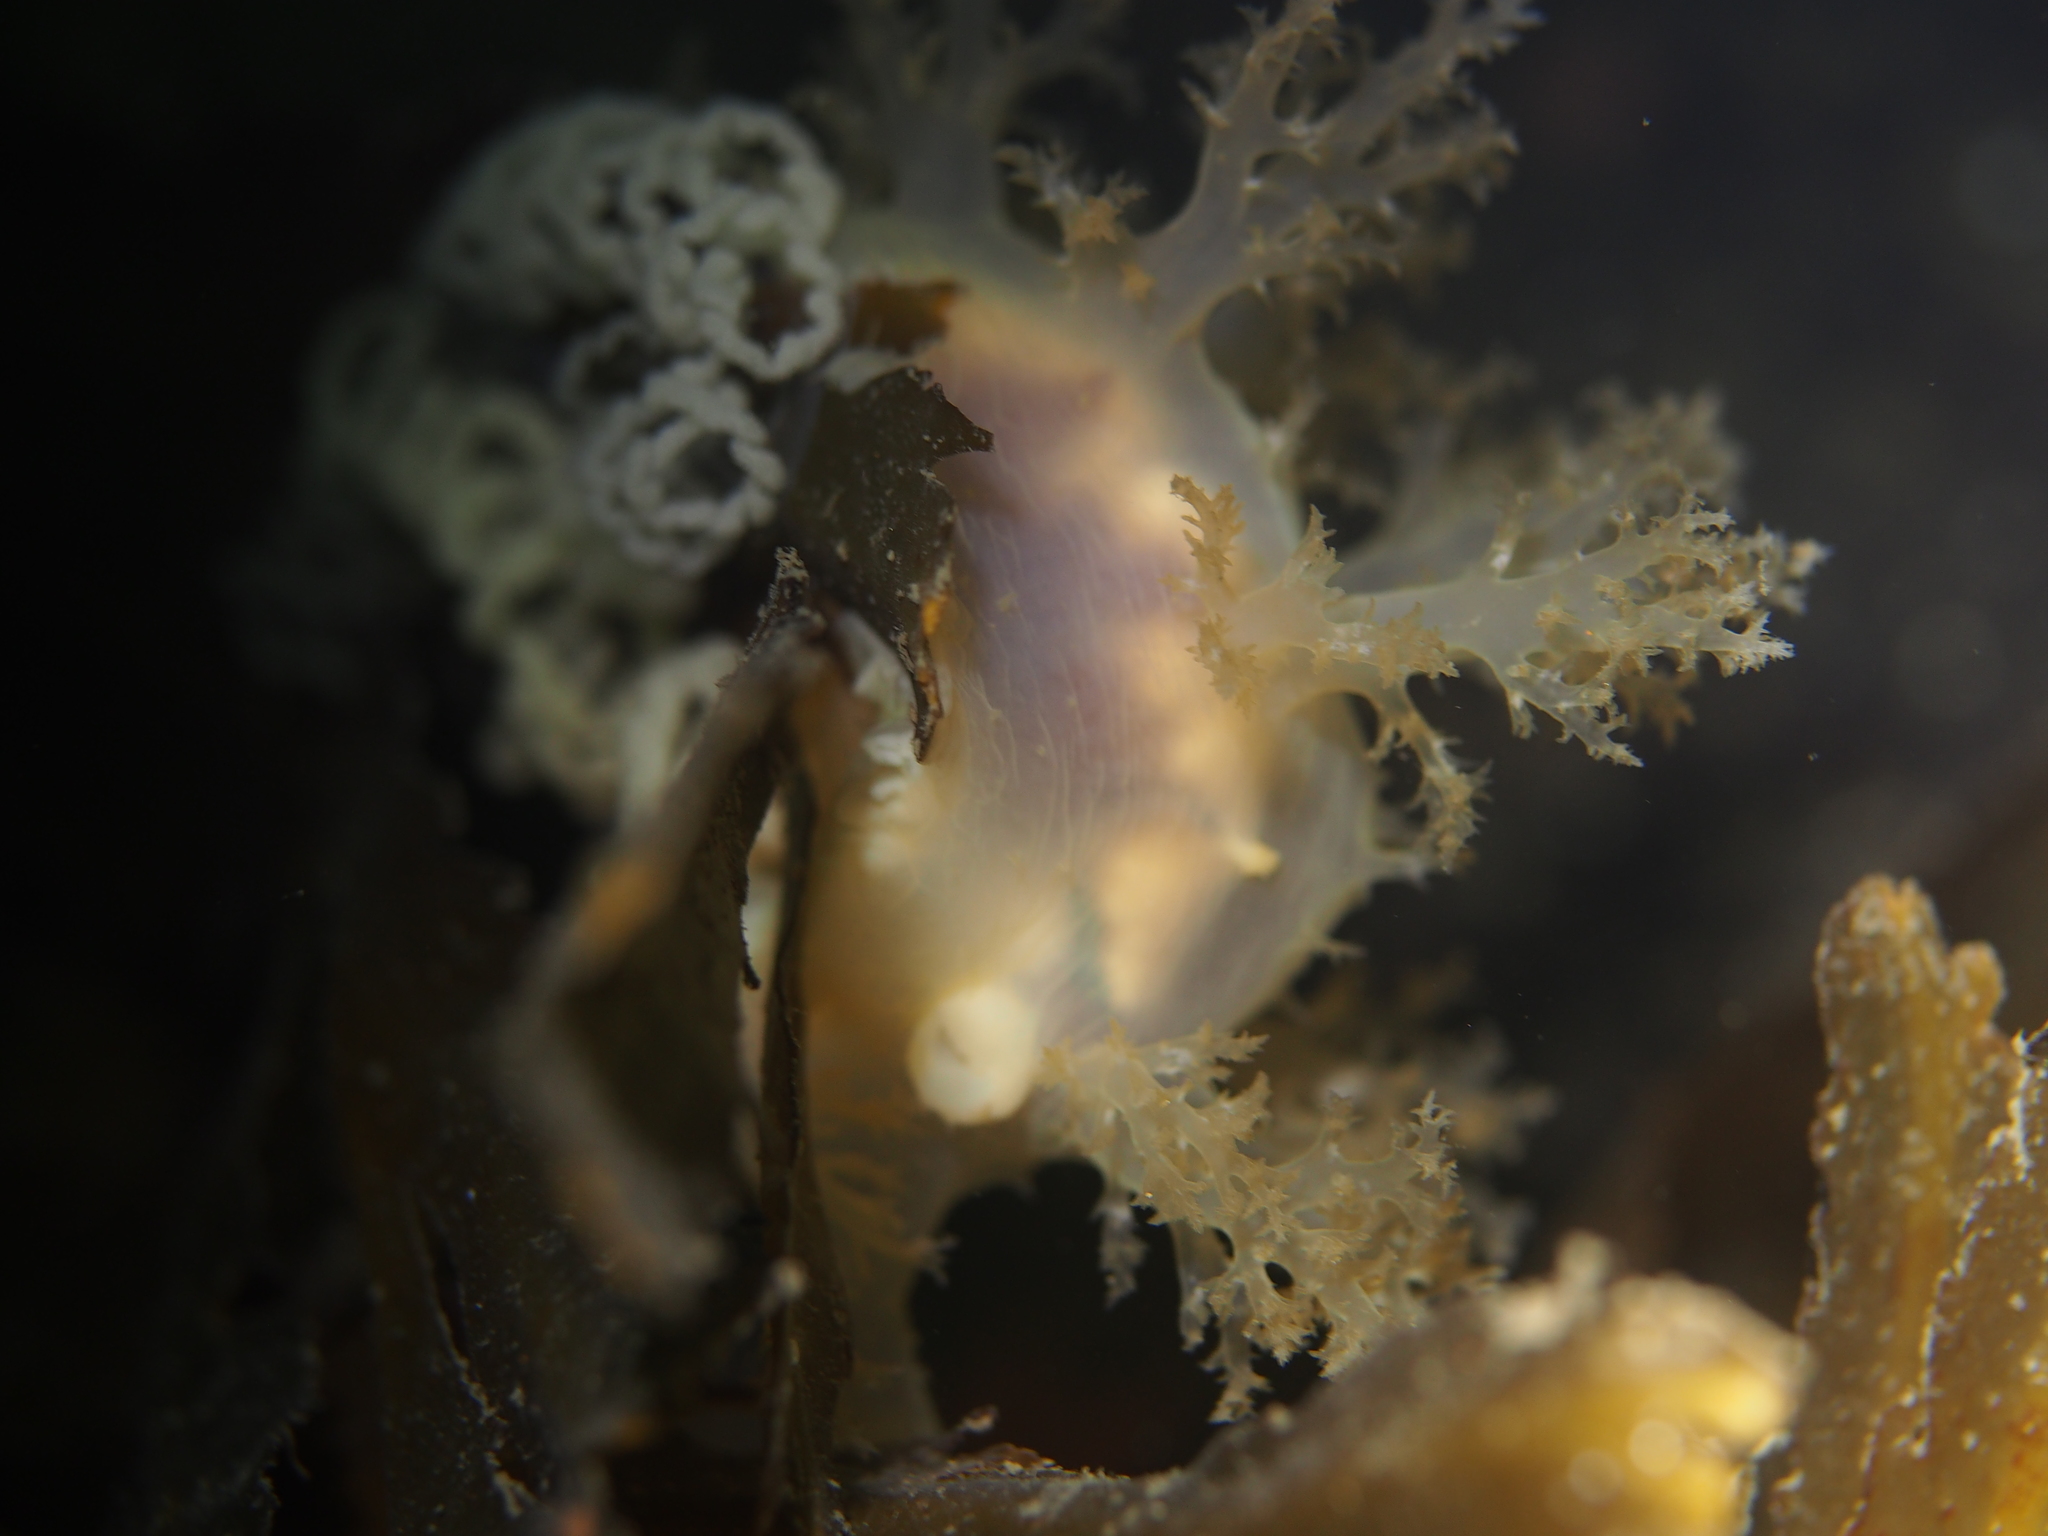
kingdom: Animalia
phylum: Mollusca
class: Gastropoda
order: Nudibranchia
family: Dendronotidae
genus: Dendronotus
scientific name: Dendronotus lacteus
